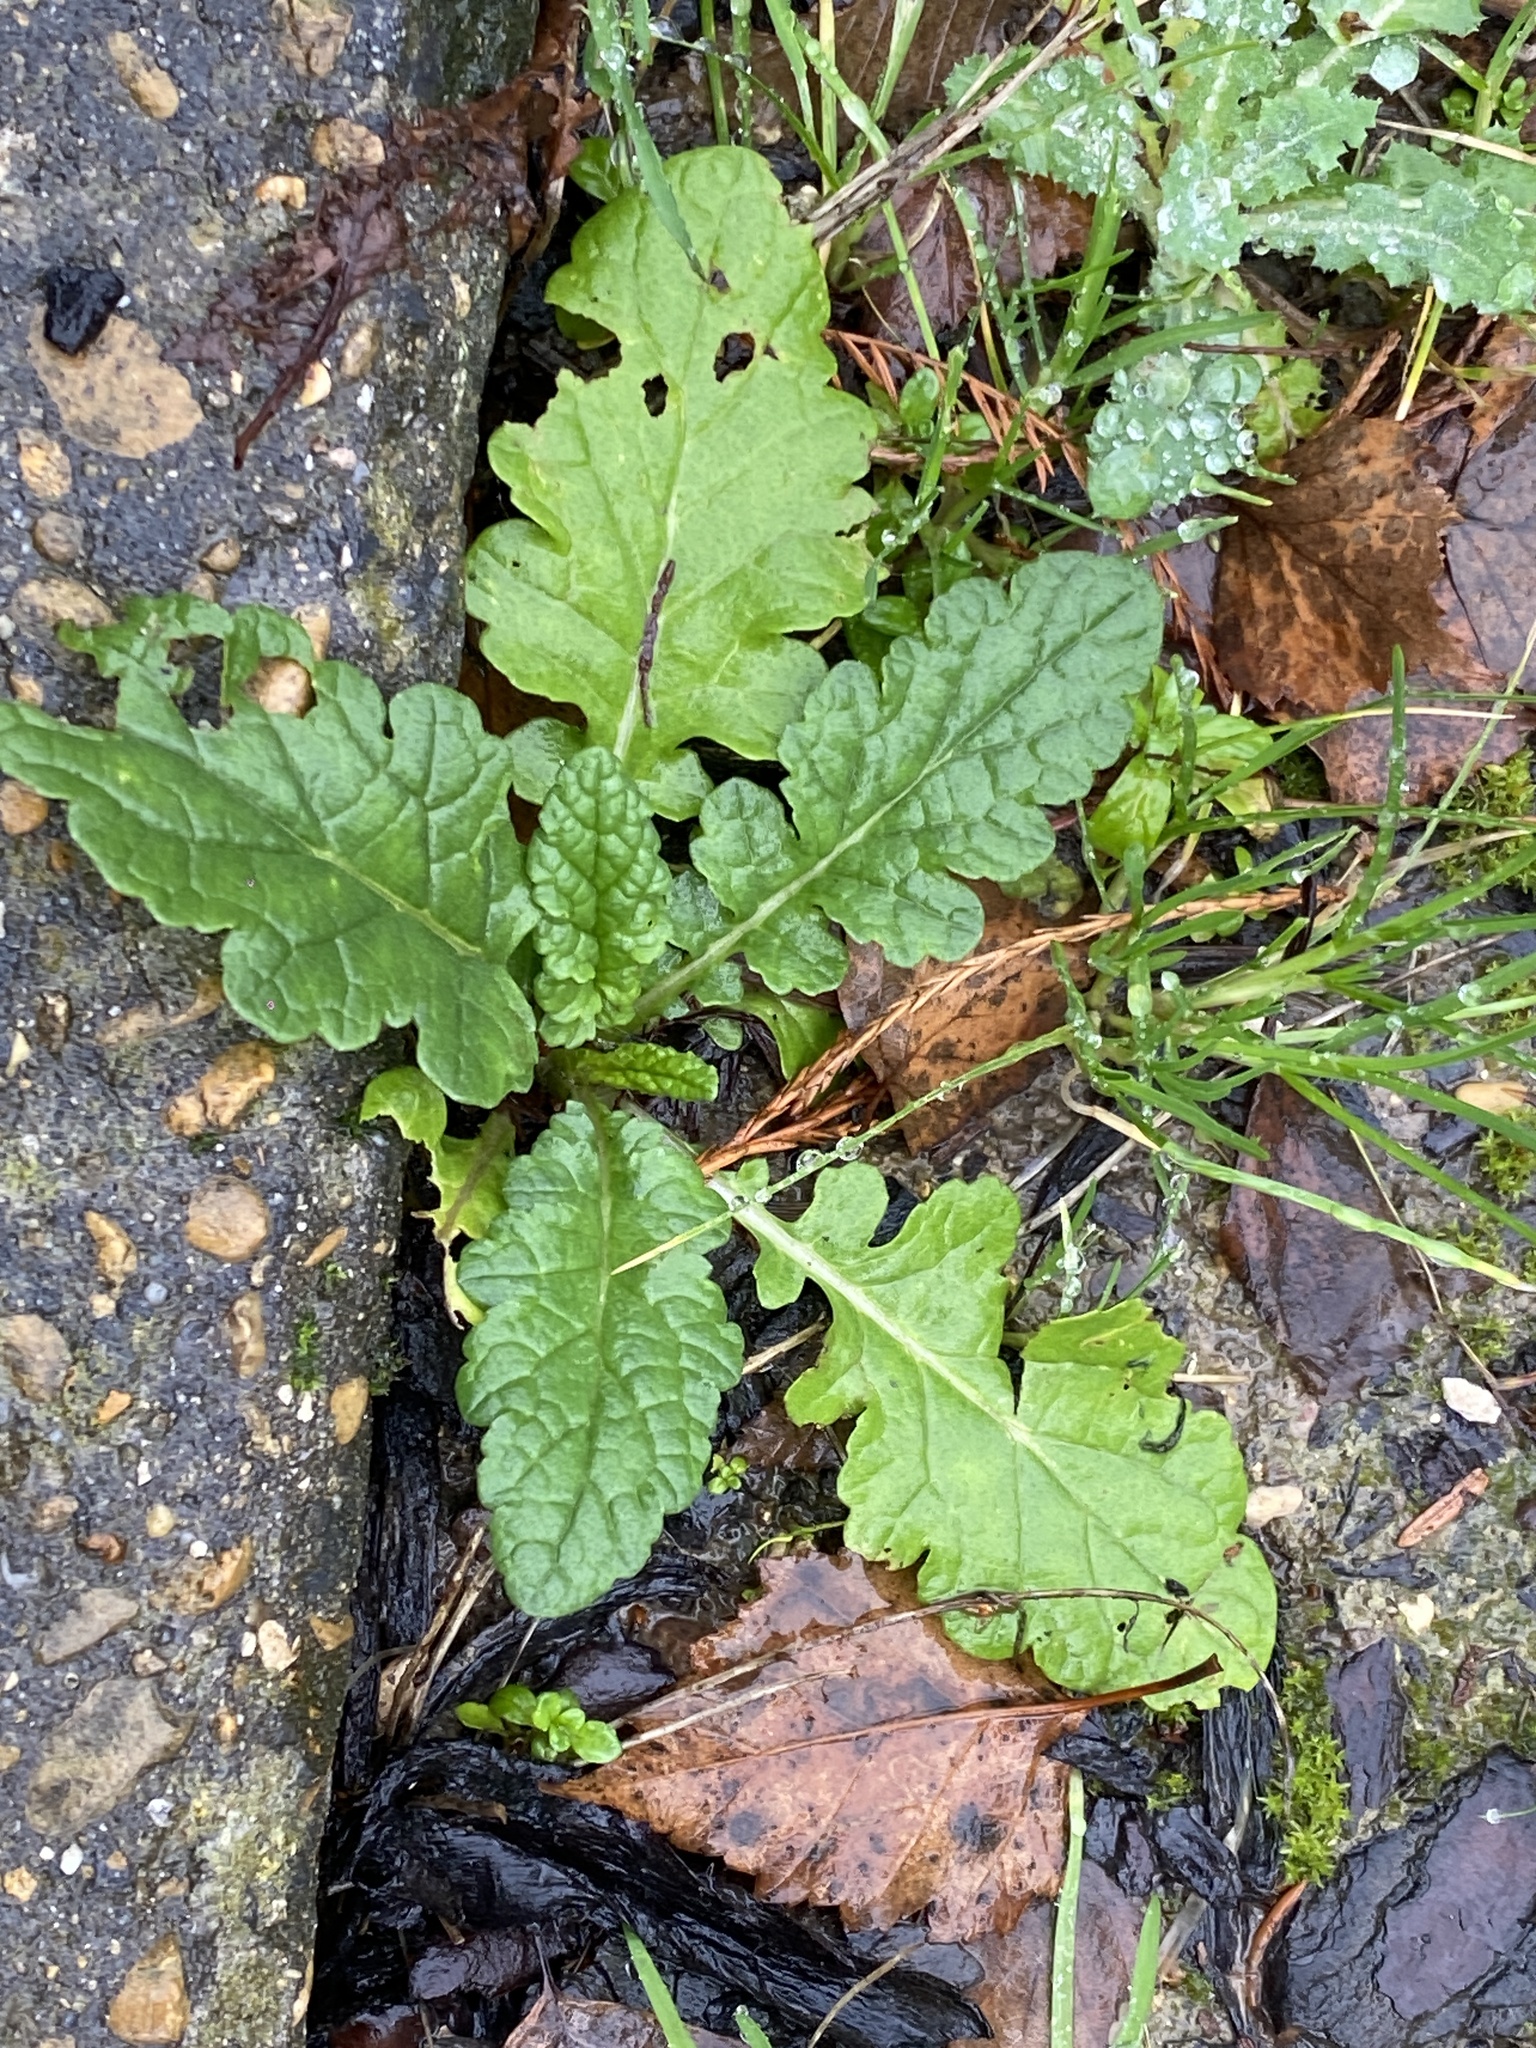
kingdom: Plantae
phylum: Tracheophyta
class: Magnoliopsida
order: Asterales
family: Asteraceae
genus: Jacobaea
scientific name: Jacobaea vulgaris
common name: Stinking willie
